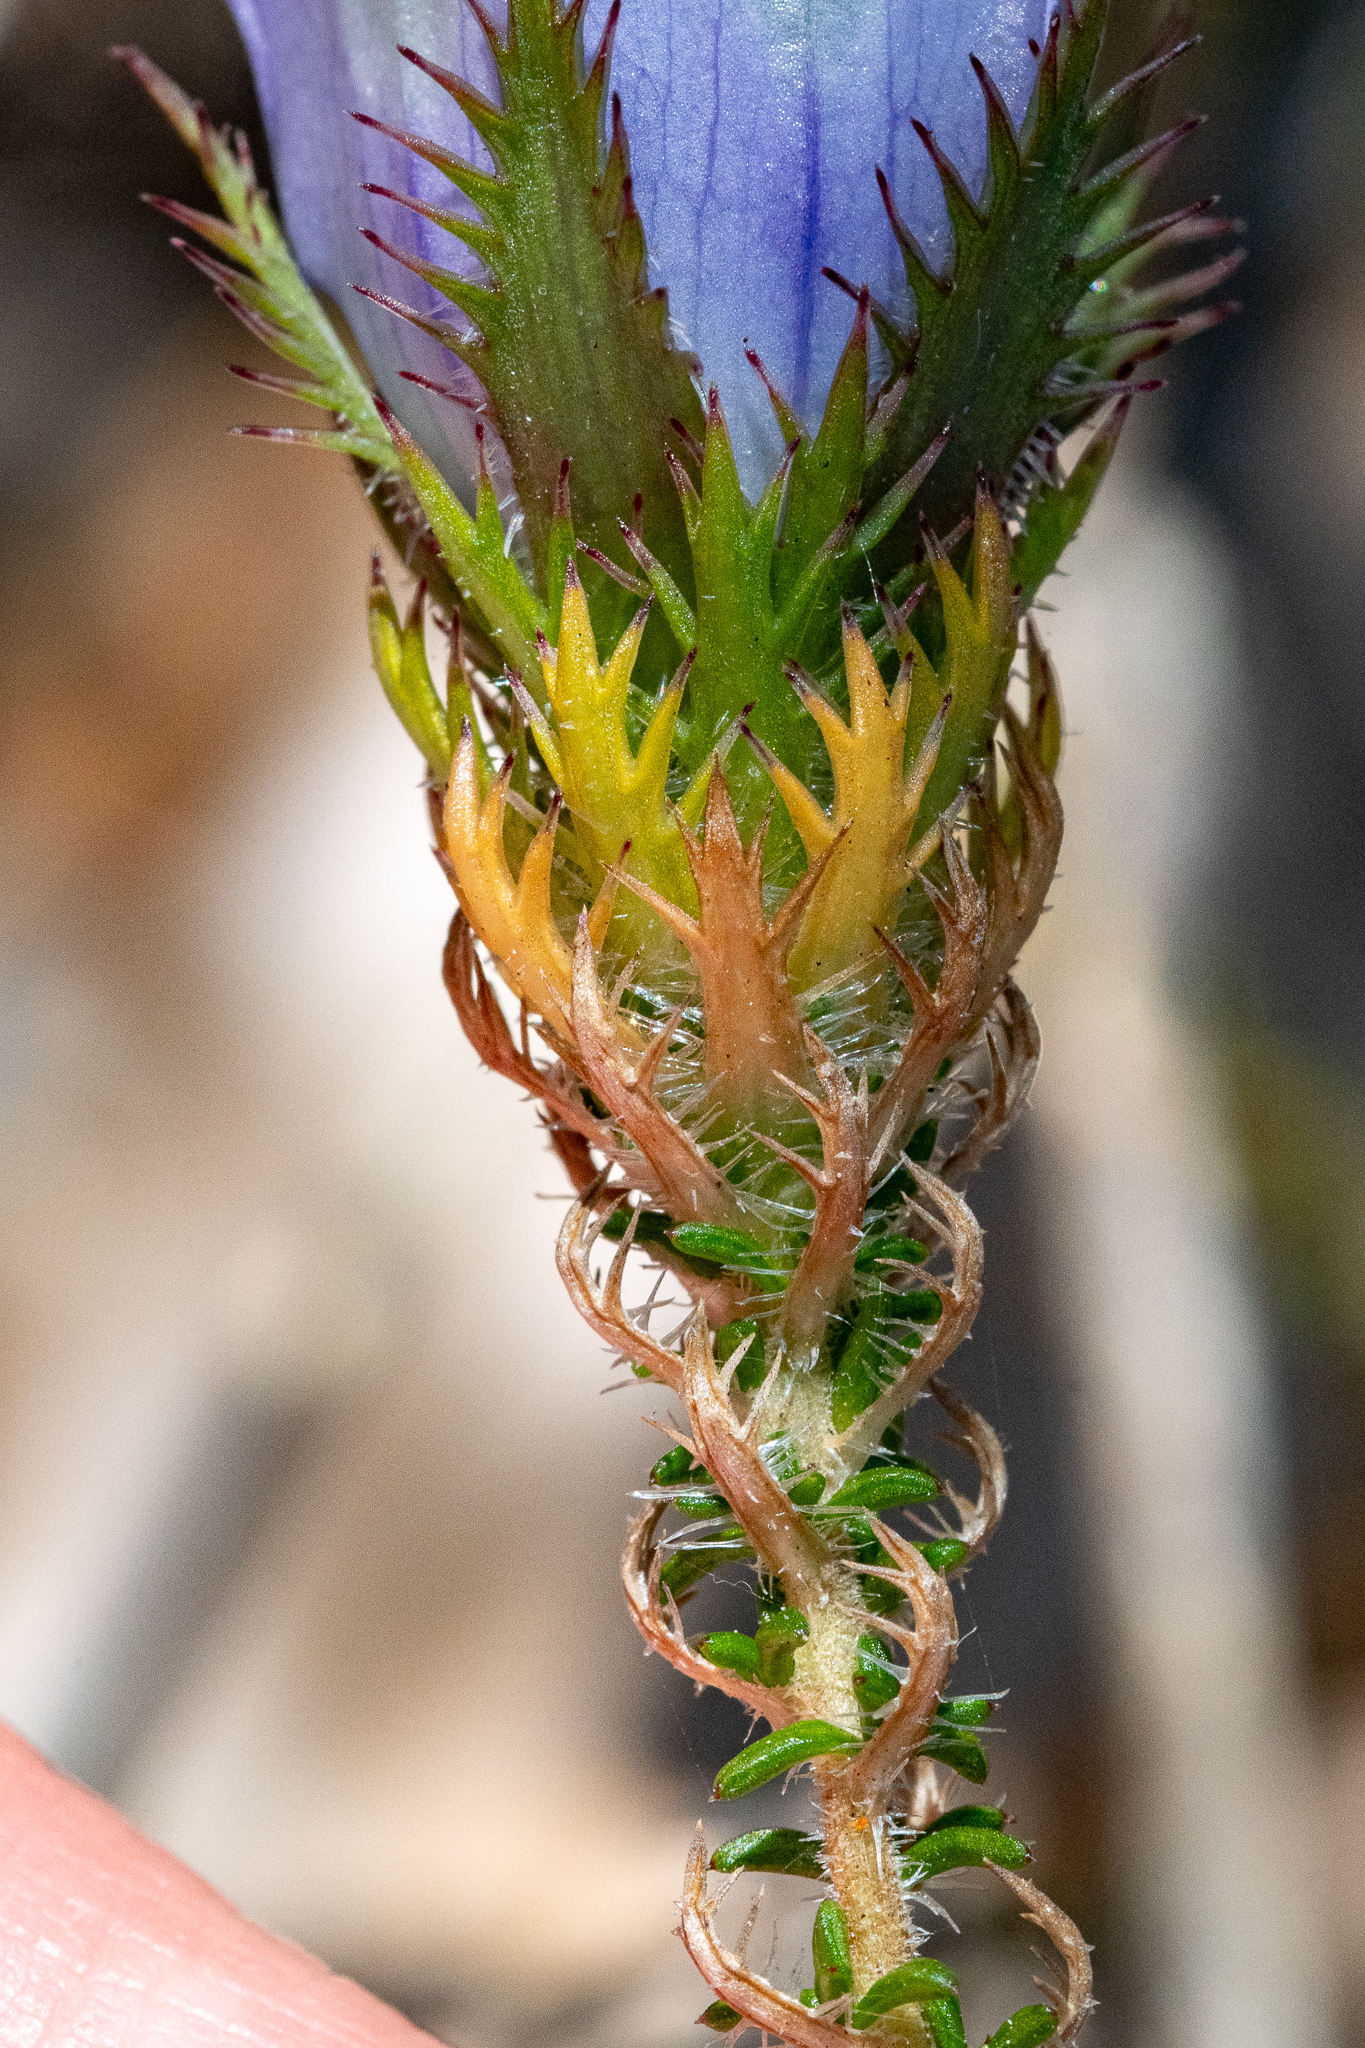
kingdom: Plantae
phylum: Tracheophyta
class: Magnoliopsida
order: Asterales
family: Campanulaceae
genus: Roella
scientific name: Roella incurva
